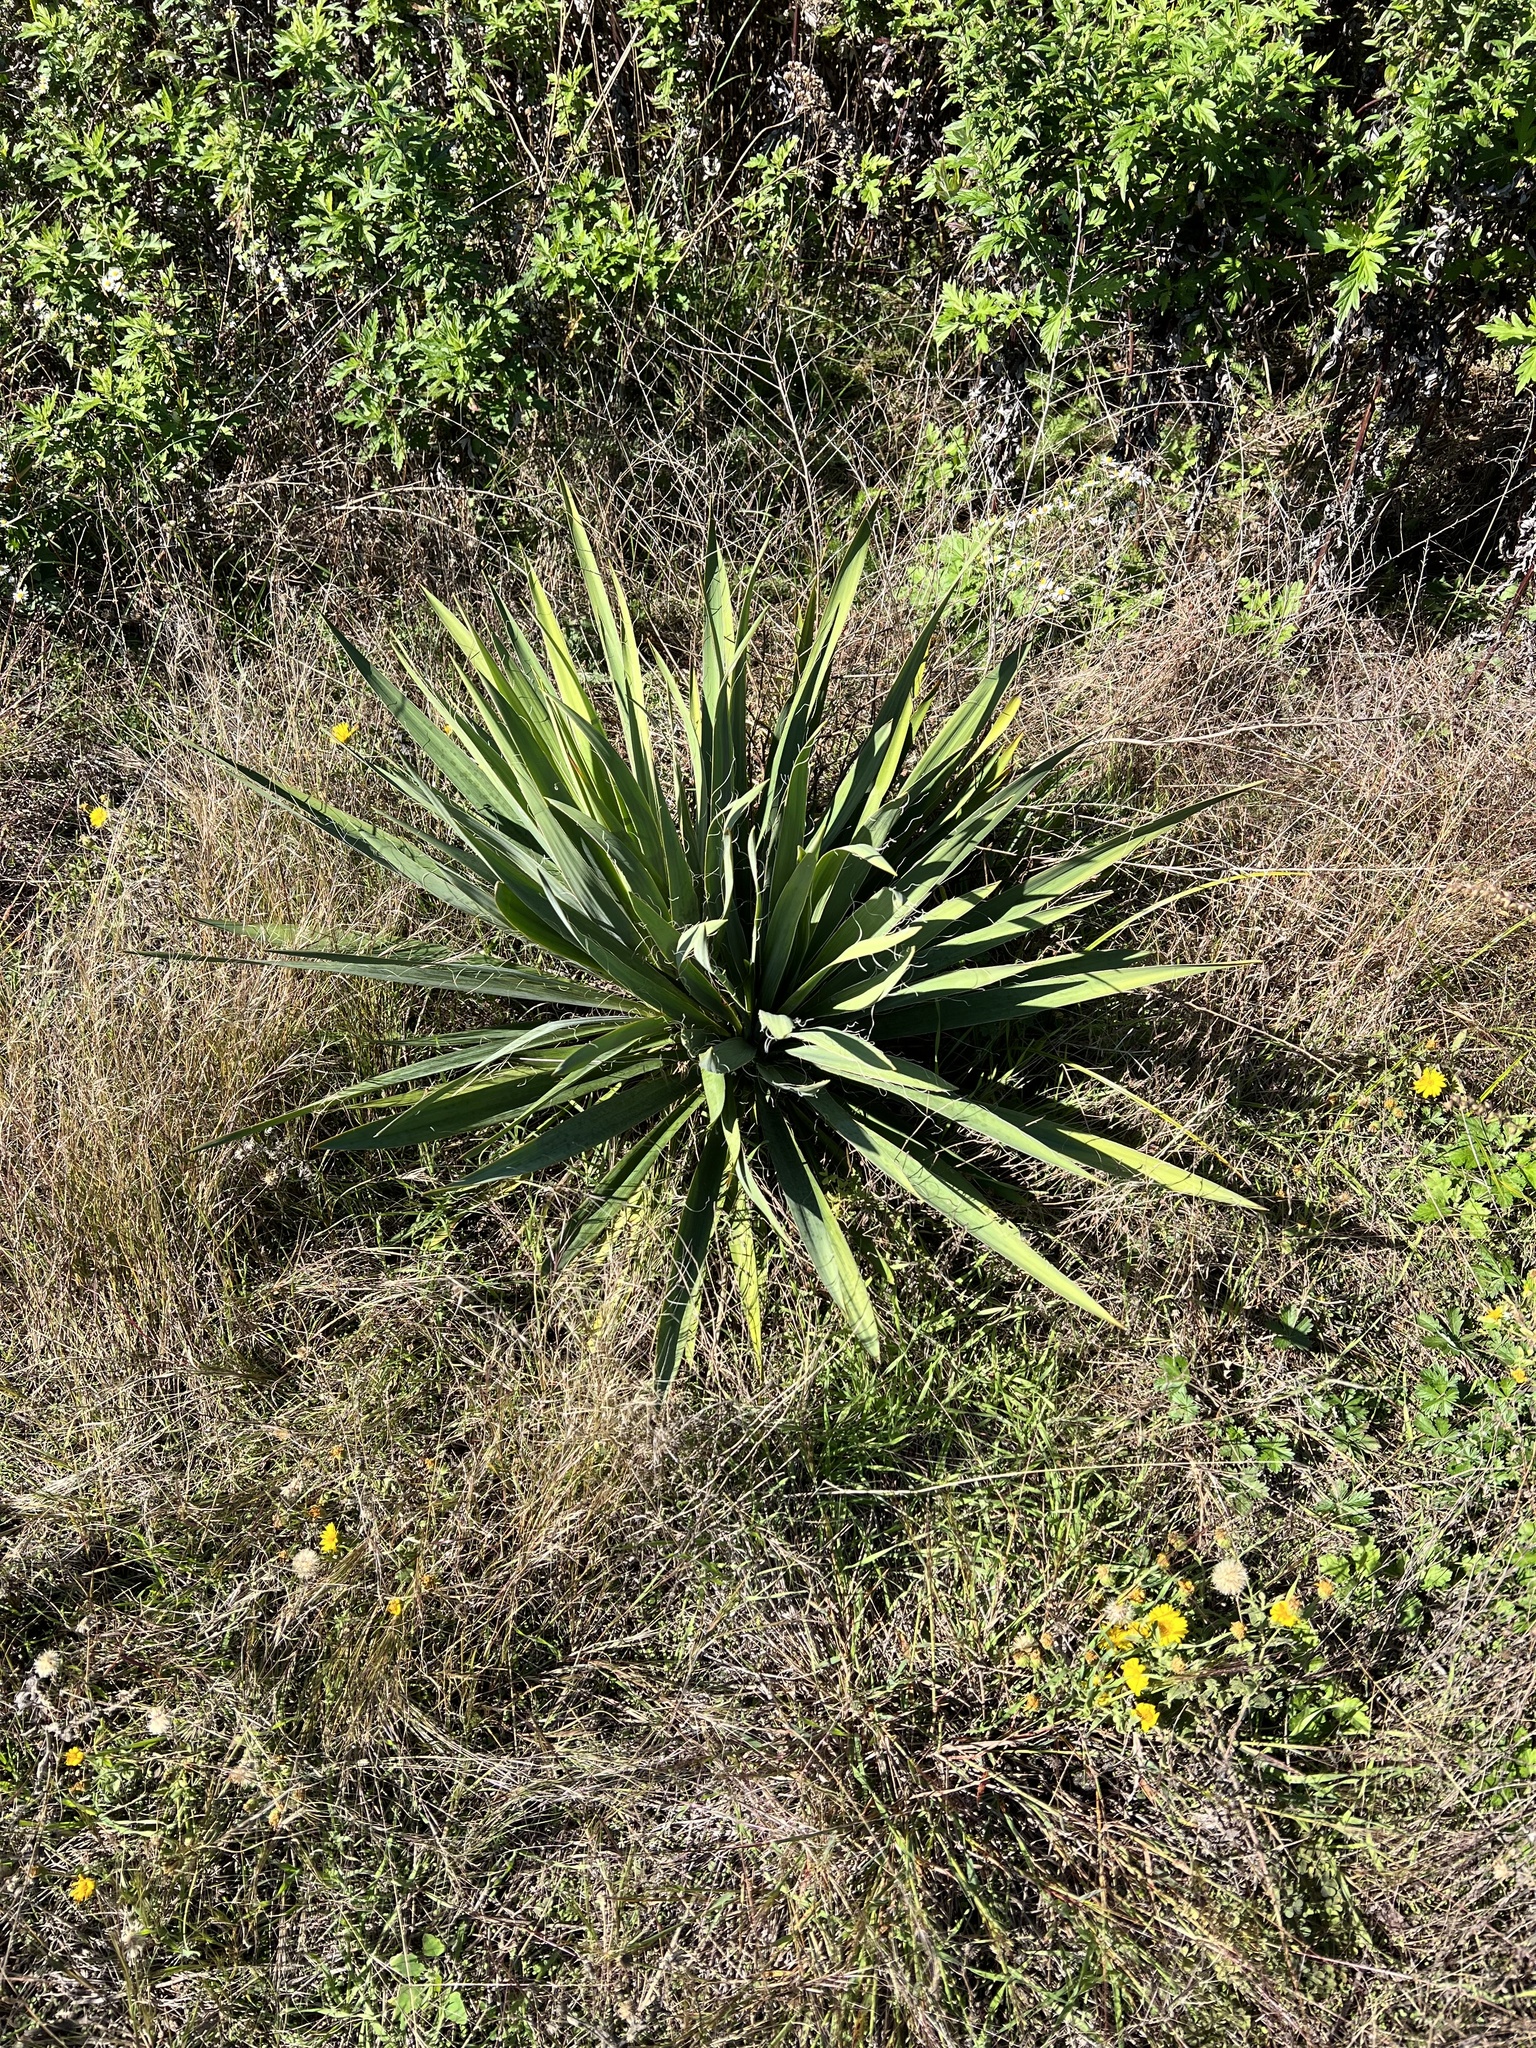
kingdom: Plantae
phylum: Tracheophyta
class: Liliopsida
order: Asparagales
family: Asparagaceae
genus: Yucca
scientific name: Yucca filamentosa
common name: Adam's-needle
